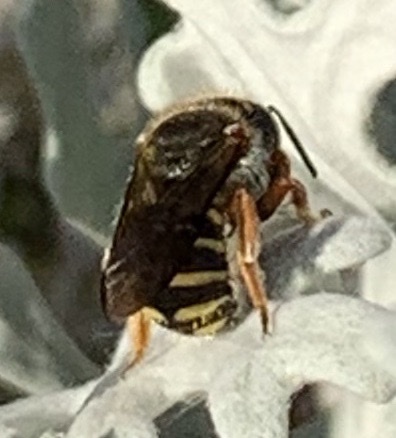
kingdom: Animalia
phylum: Arthropoda
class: Insecta
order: Hymenoptera
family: Megachilidae
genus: Anthidium
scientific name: Anthidium oblongatum
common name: Oblong wool carder bee
